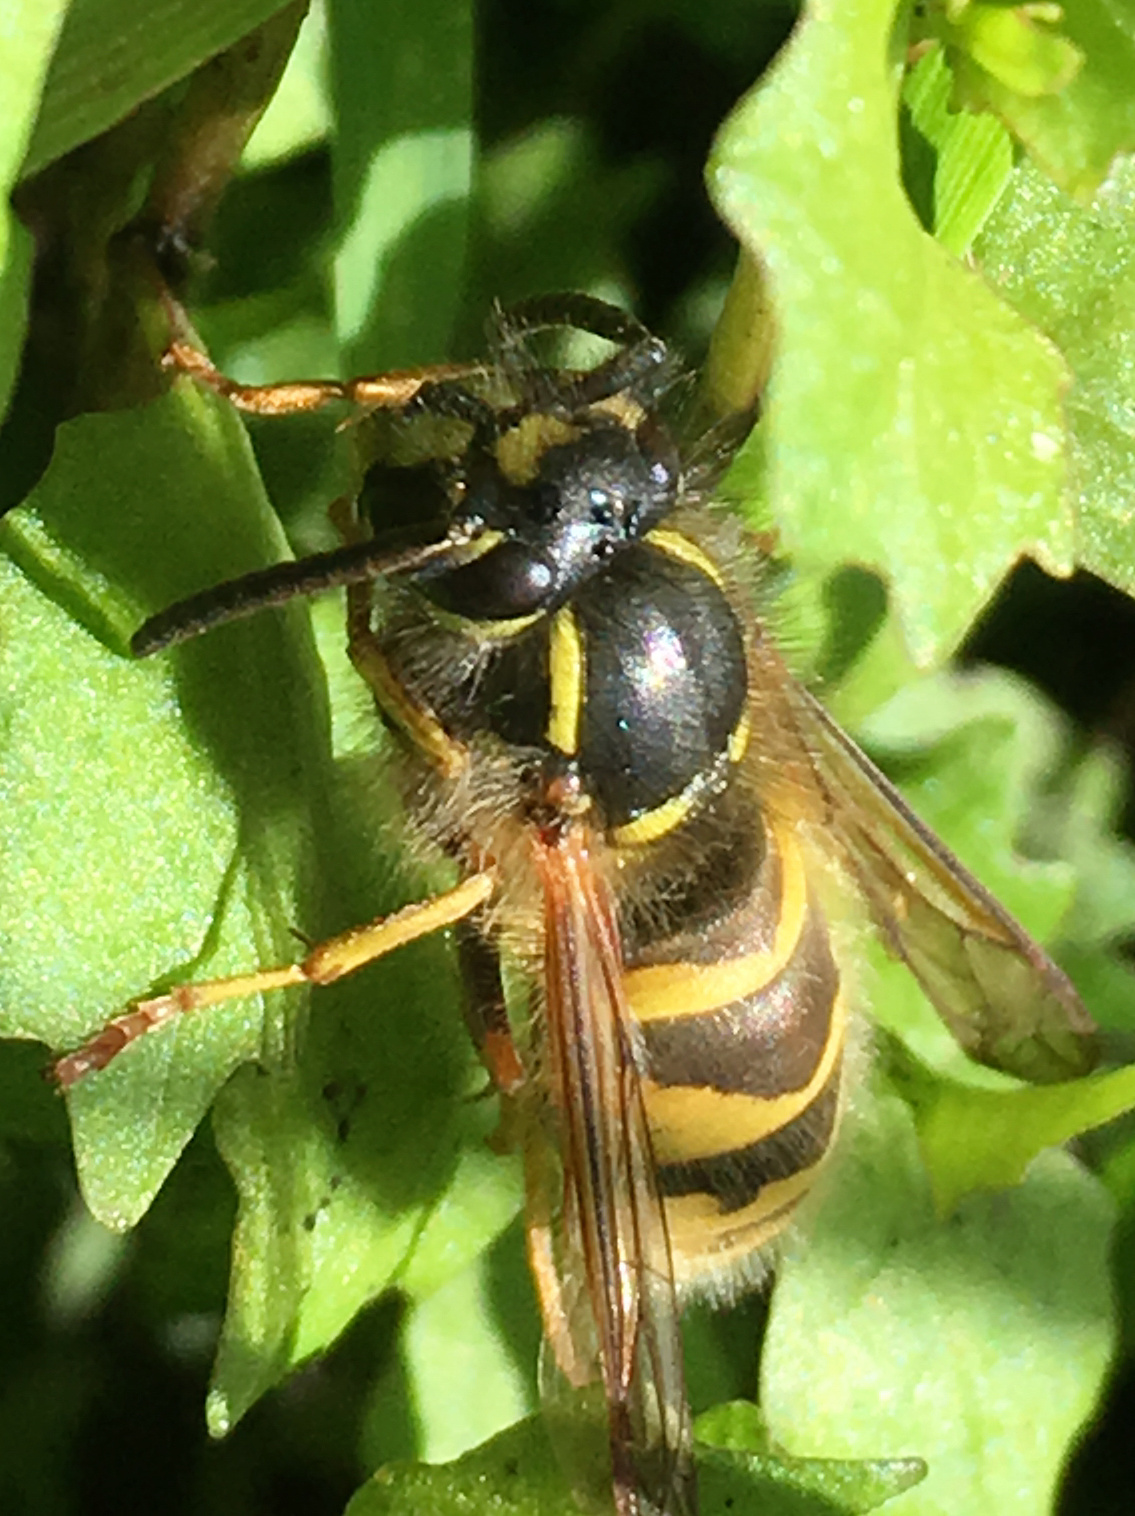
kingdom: Animalia
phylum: Arthropoda
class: Insecta
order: Hymenoptera
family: Vespidae
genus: Vespula
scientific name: Vespula vulgaris
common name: Common wasp
